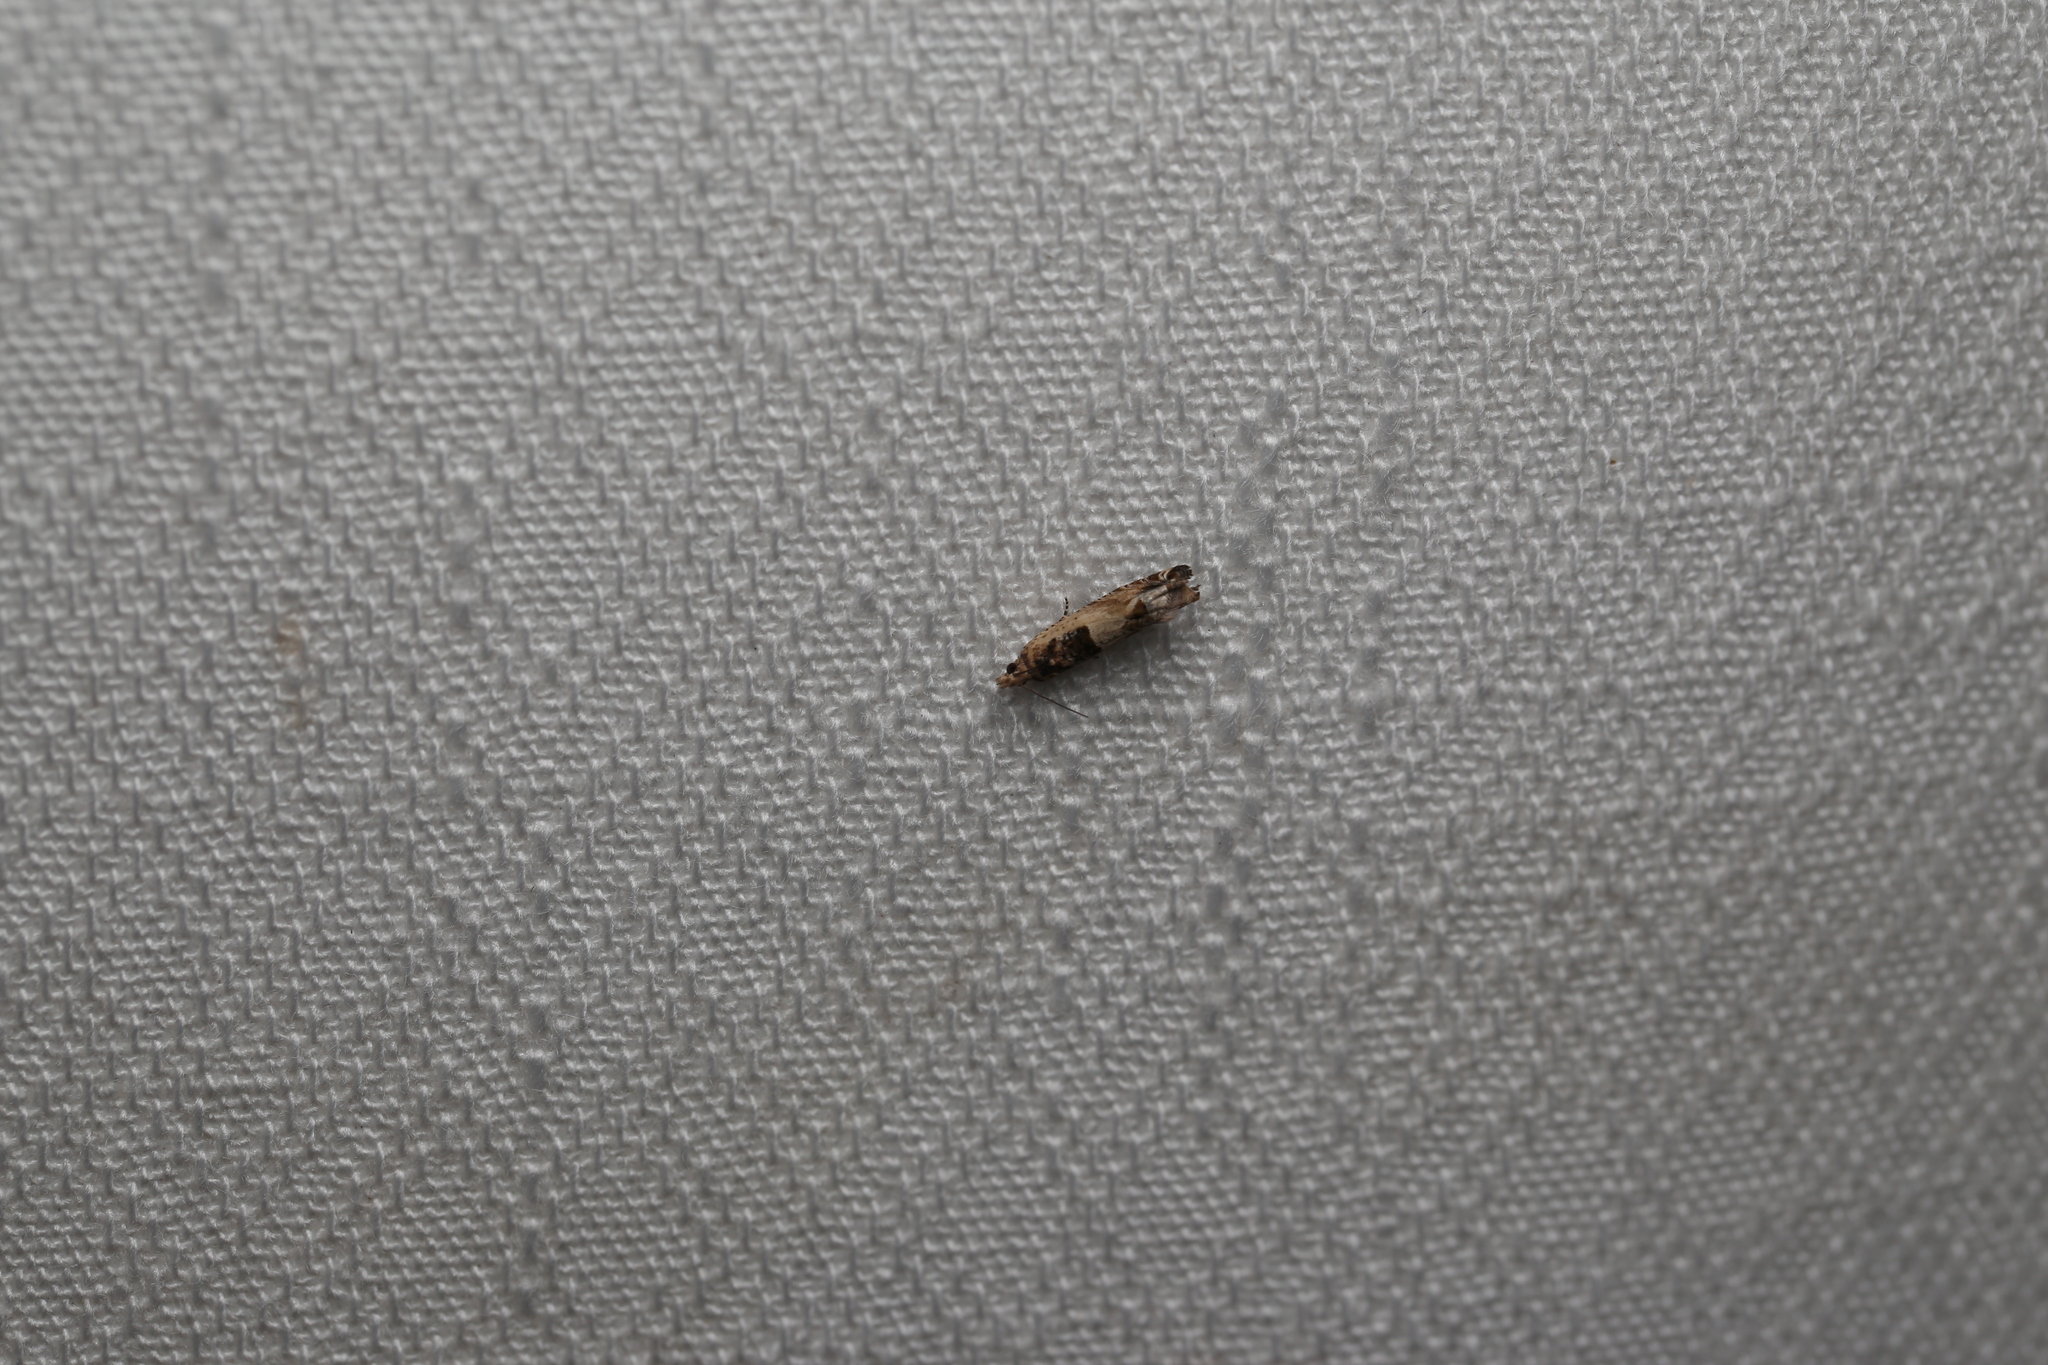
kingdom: Animalia
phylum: Arthropoda
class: Insecta
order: Lepidoptera
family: Tortricidae
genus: Crocidosema
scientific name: Crocidosema plebejana
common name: Southern bell
